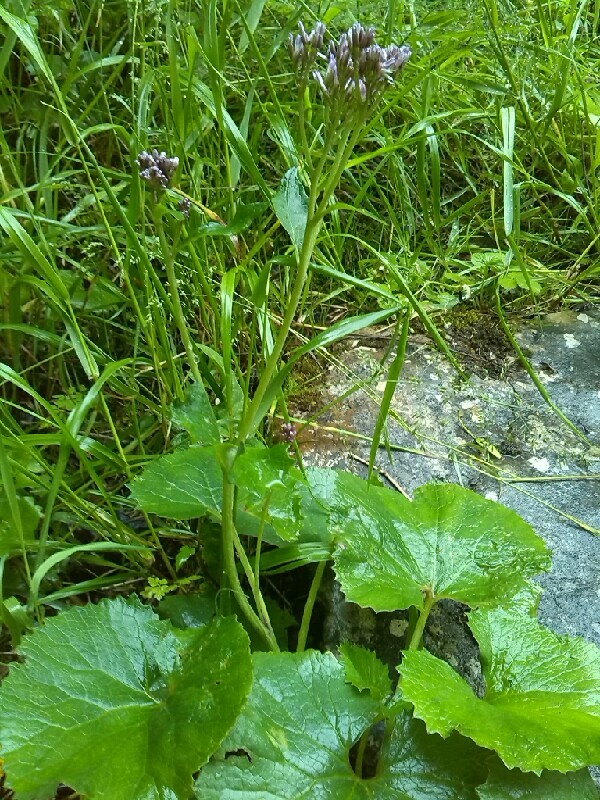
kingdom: Plantae
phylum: Tracheophyta
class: Magnoliopsida
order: Asterales
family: Asteraceae
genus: Adenostyles
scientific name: Adenostyles alpina
